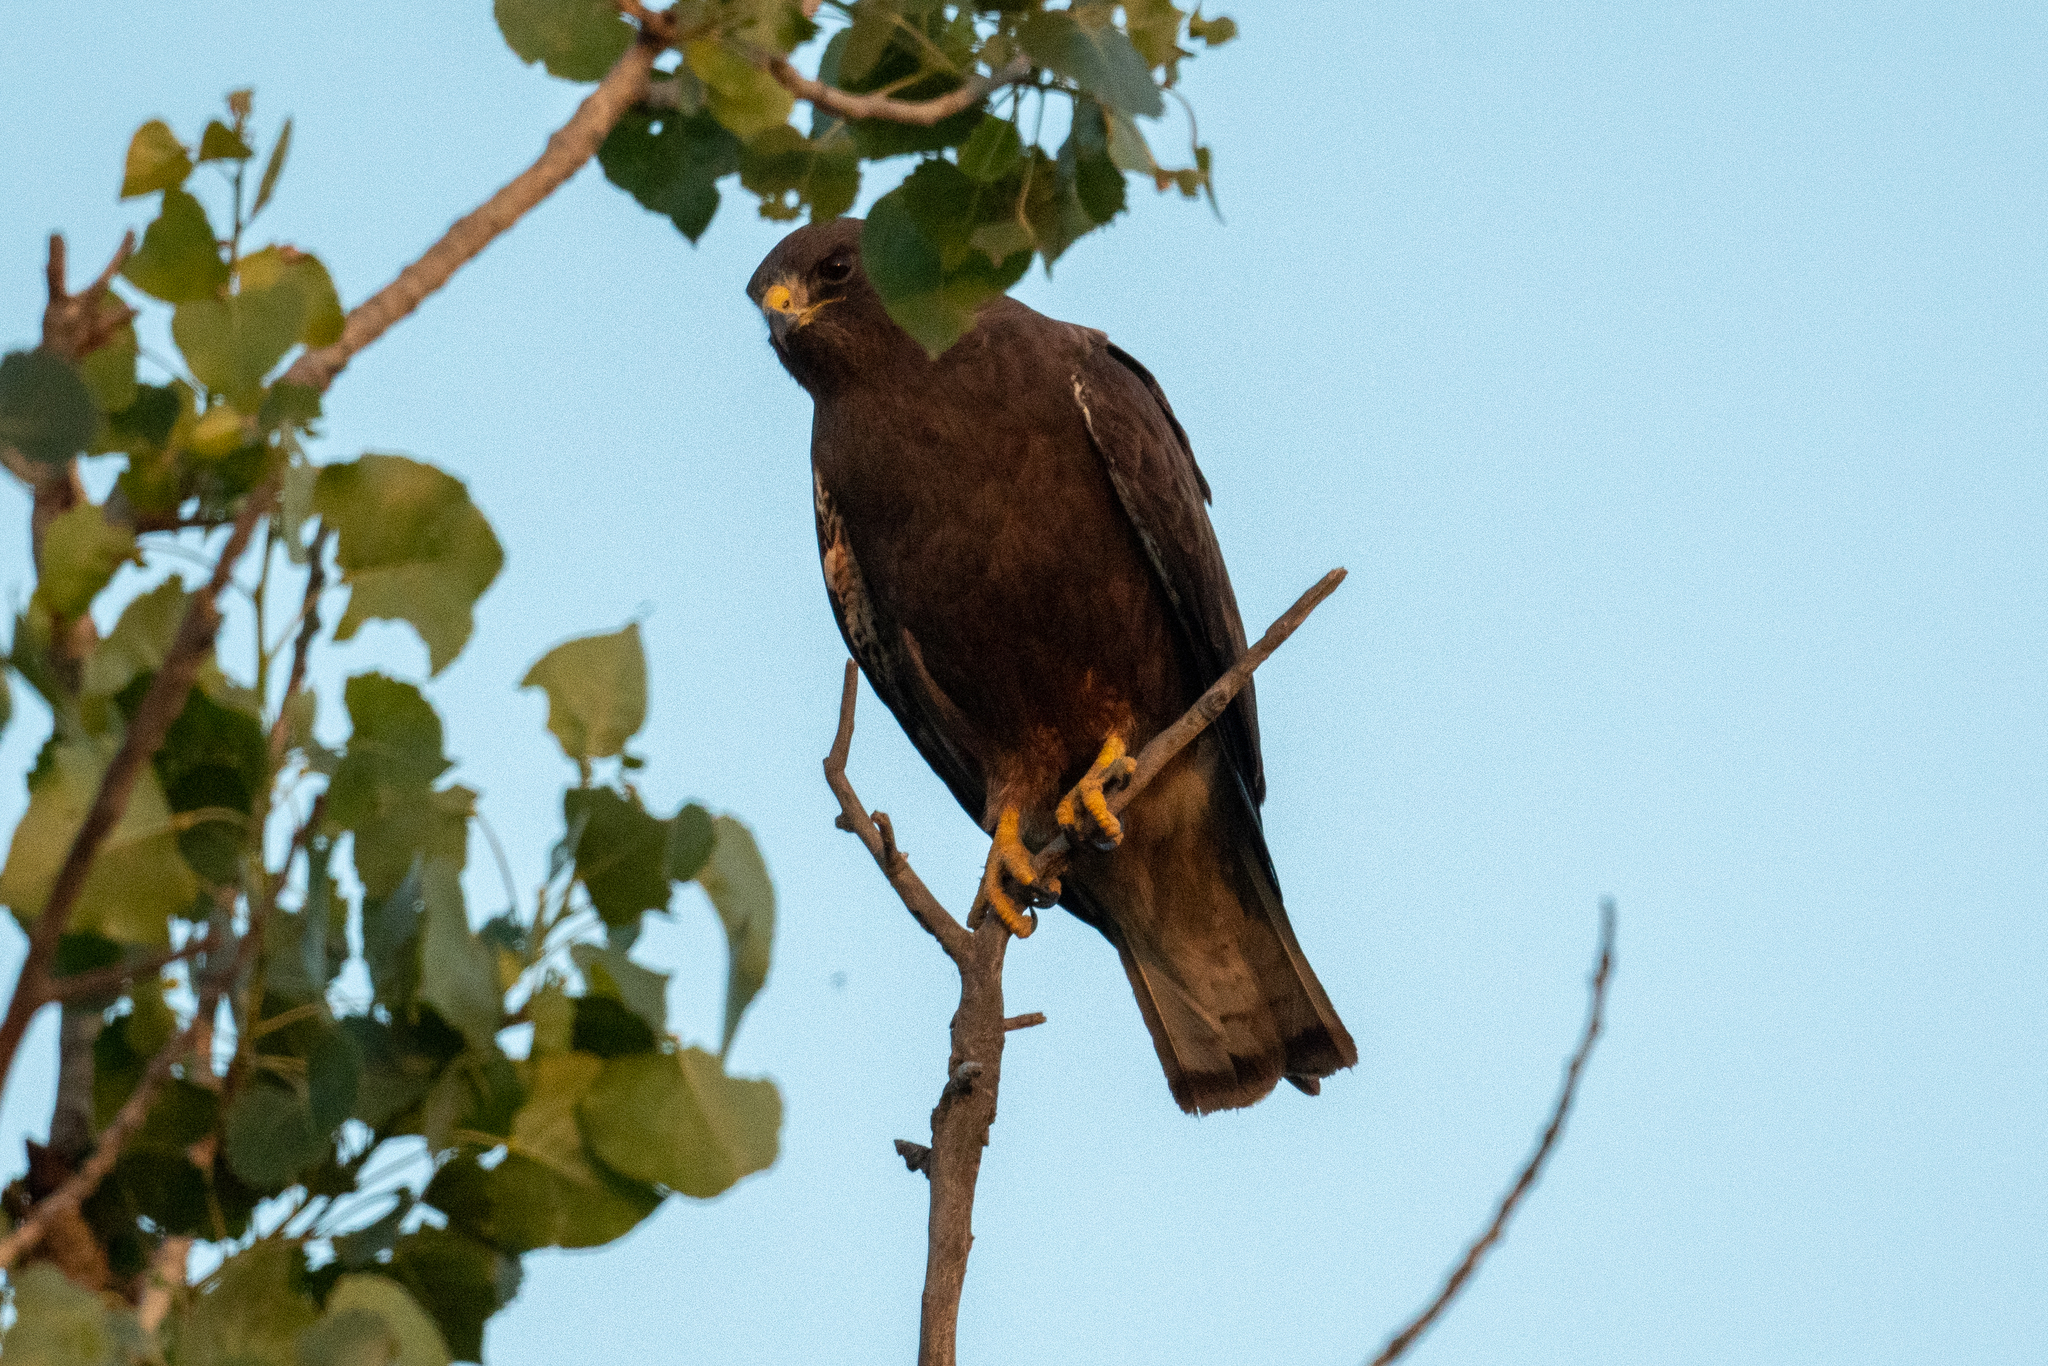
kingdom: Animalia
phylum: Chordata
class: Aves
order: Accipitriformes
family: Accipitridae
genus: Buteo
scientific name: Buteo swainsoni
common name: Swainson's hawk
